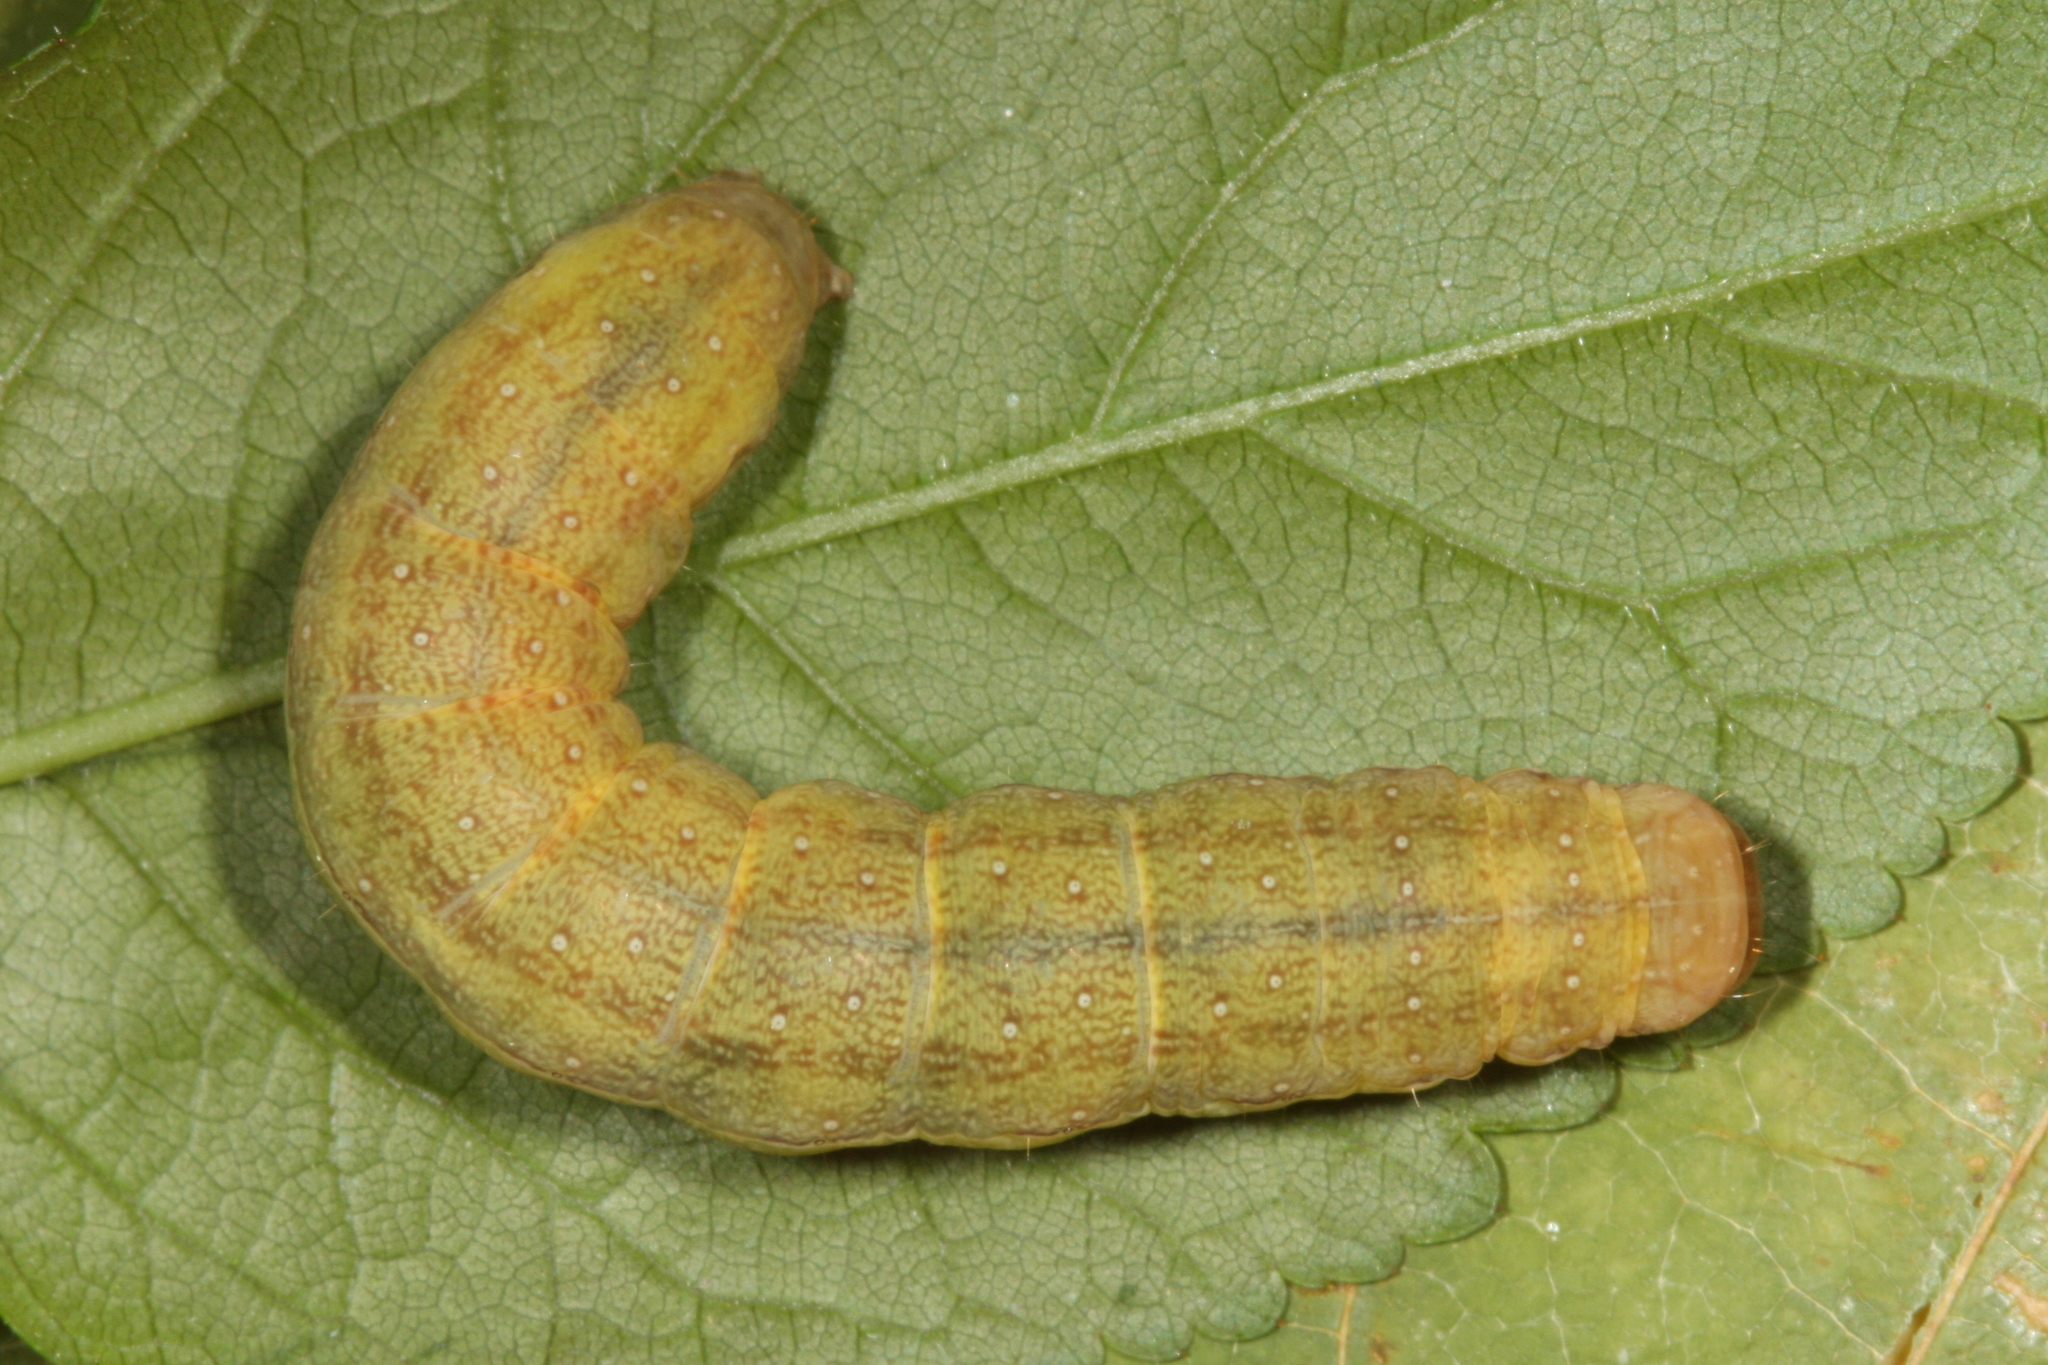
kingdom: Animalia
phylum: Arthropoda
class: Insecta
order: Lepidoptera
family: Noctuidae
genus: Agrochola
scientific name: Agrochola lychnidis
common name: Beaded chestnut
